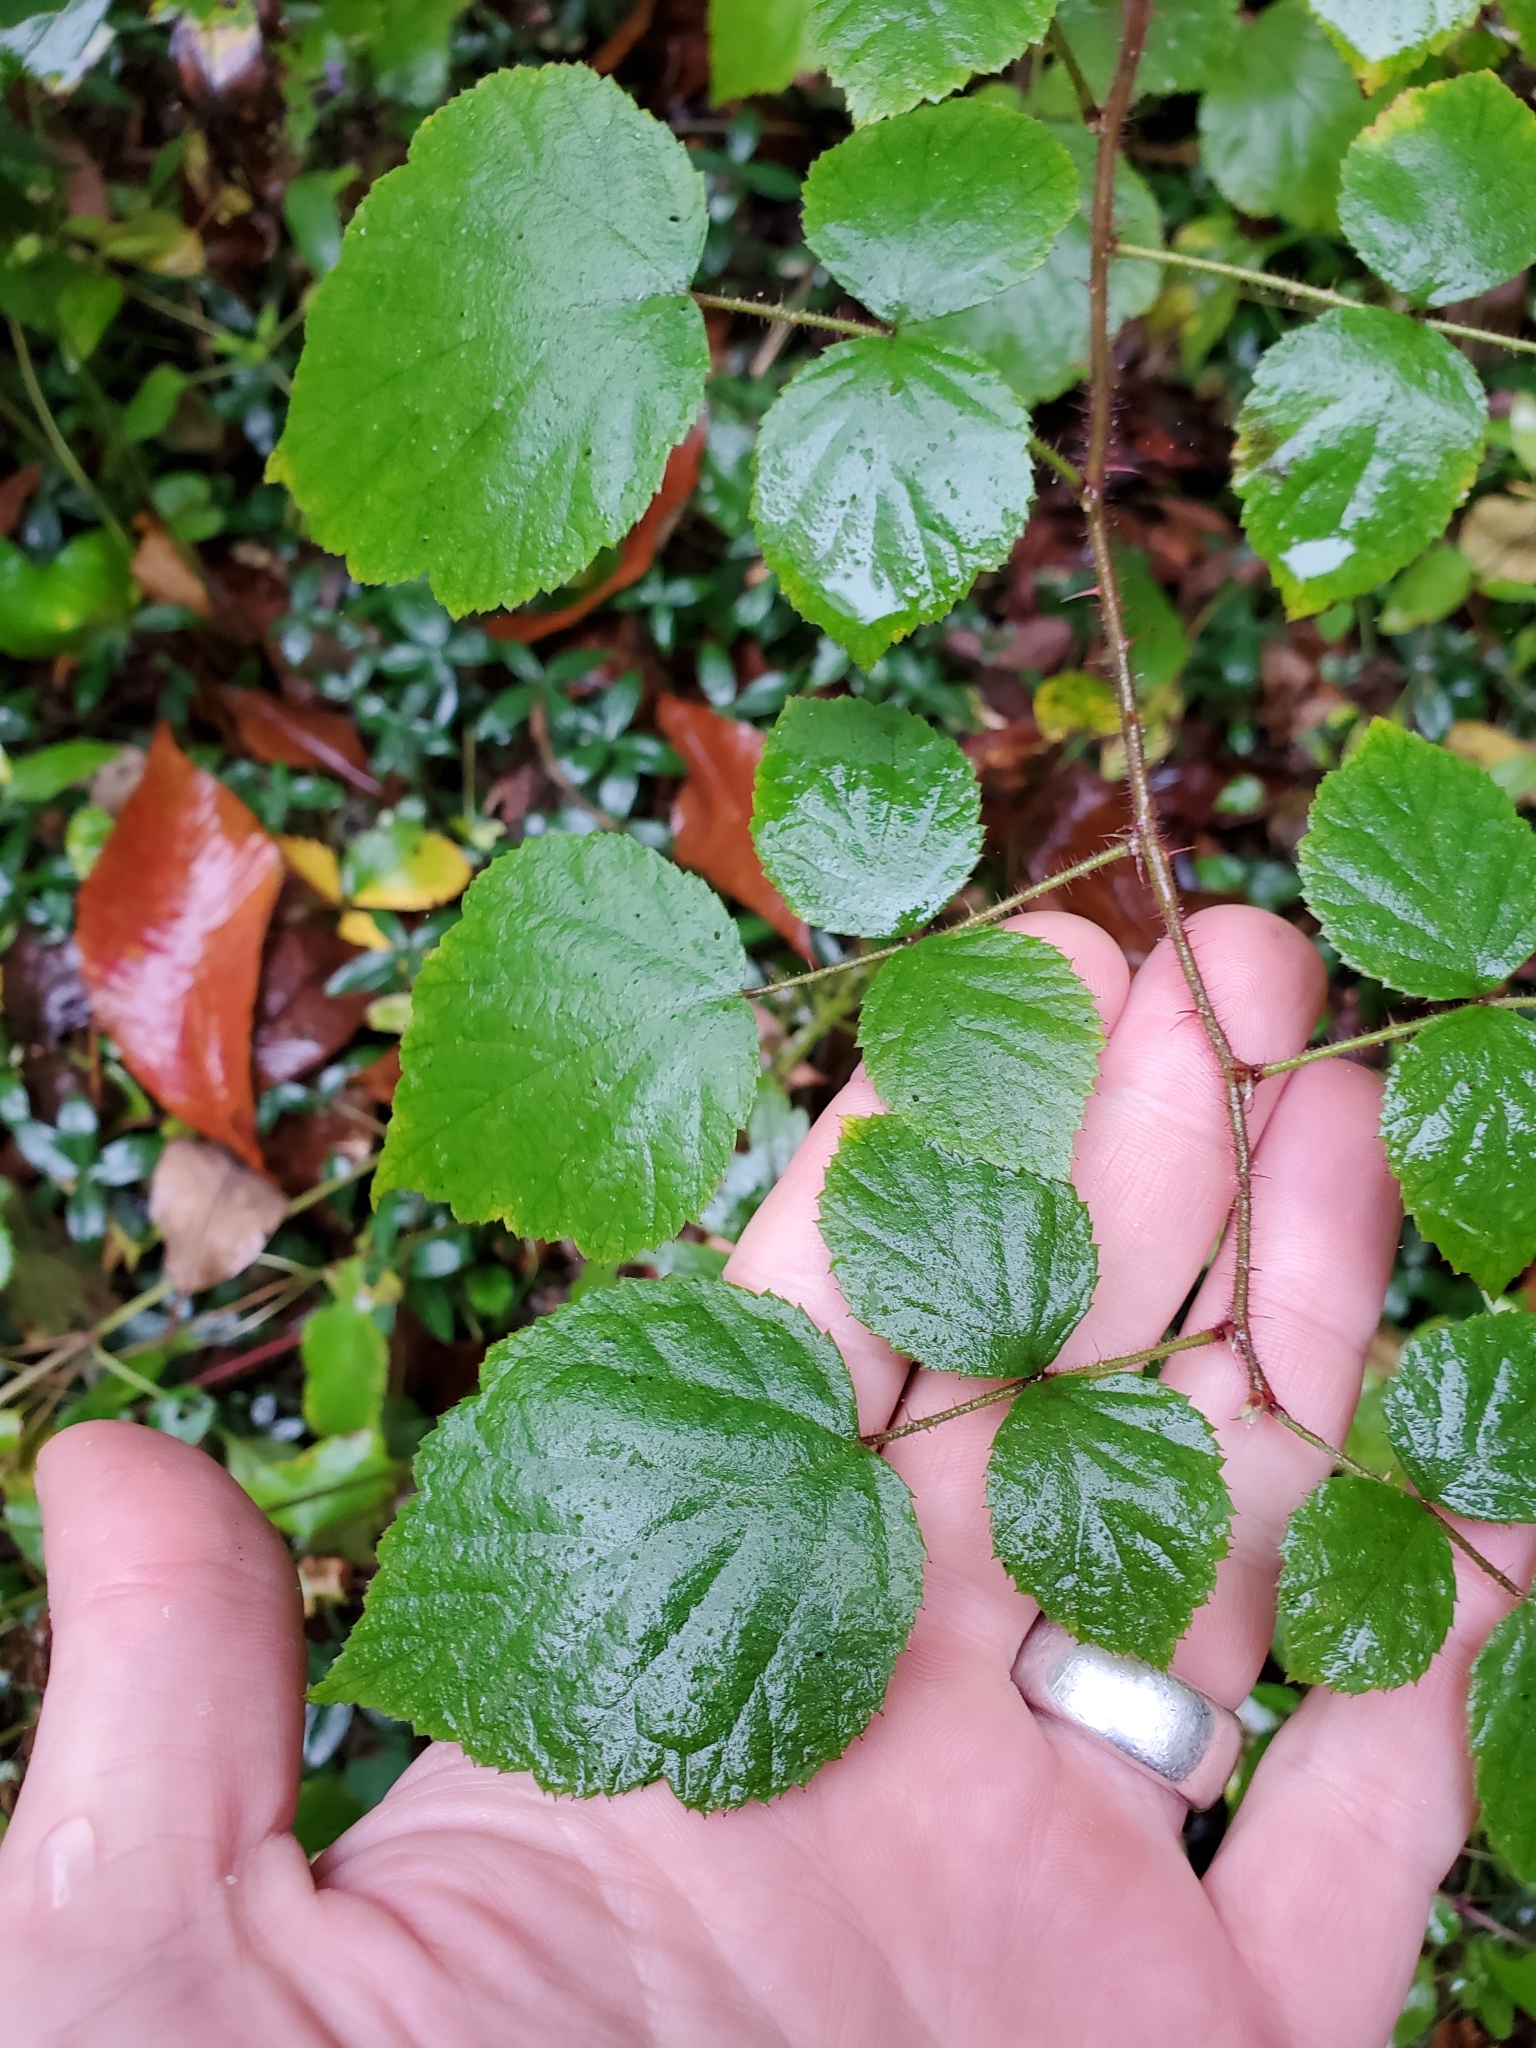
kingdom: Plantae
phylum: Tracheophyta
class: Magnoliopsida
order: Rosales
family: Rosaceae
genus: Rubus
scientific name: Rubus phoenicolasius
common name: Japanese wineberry
